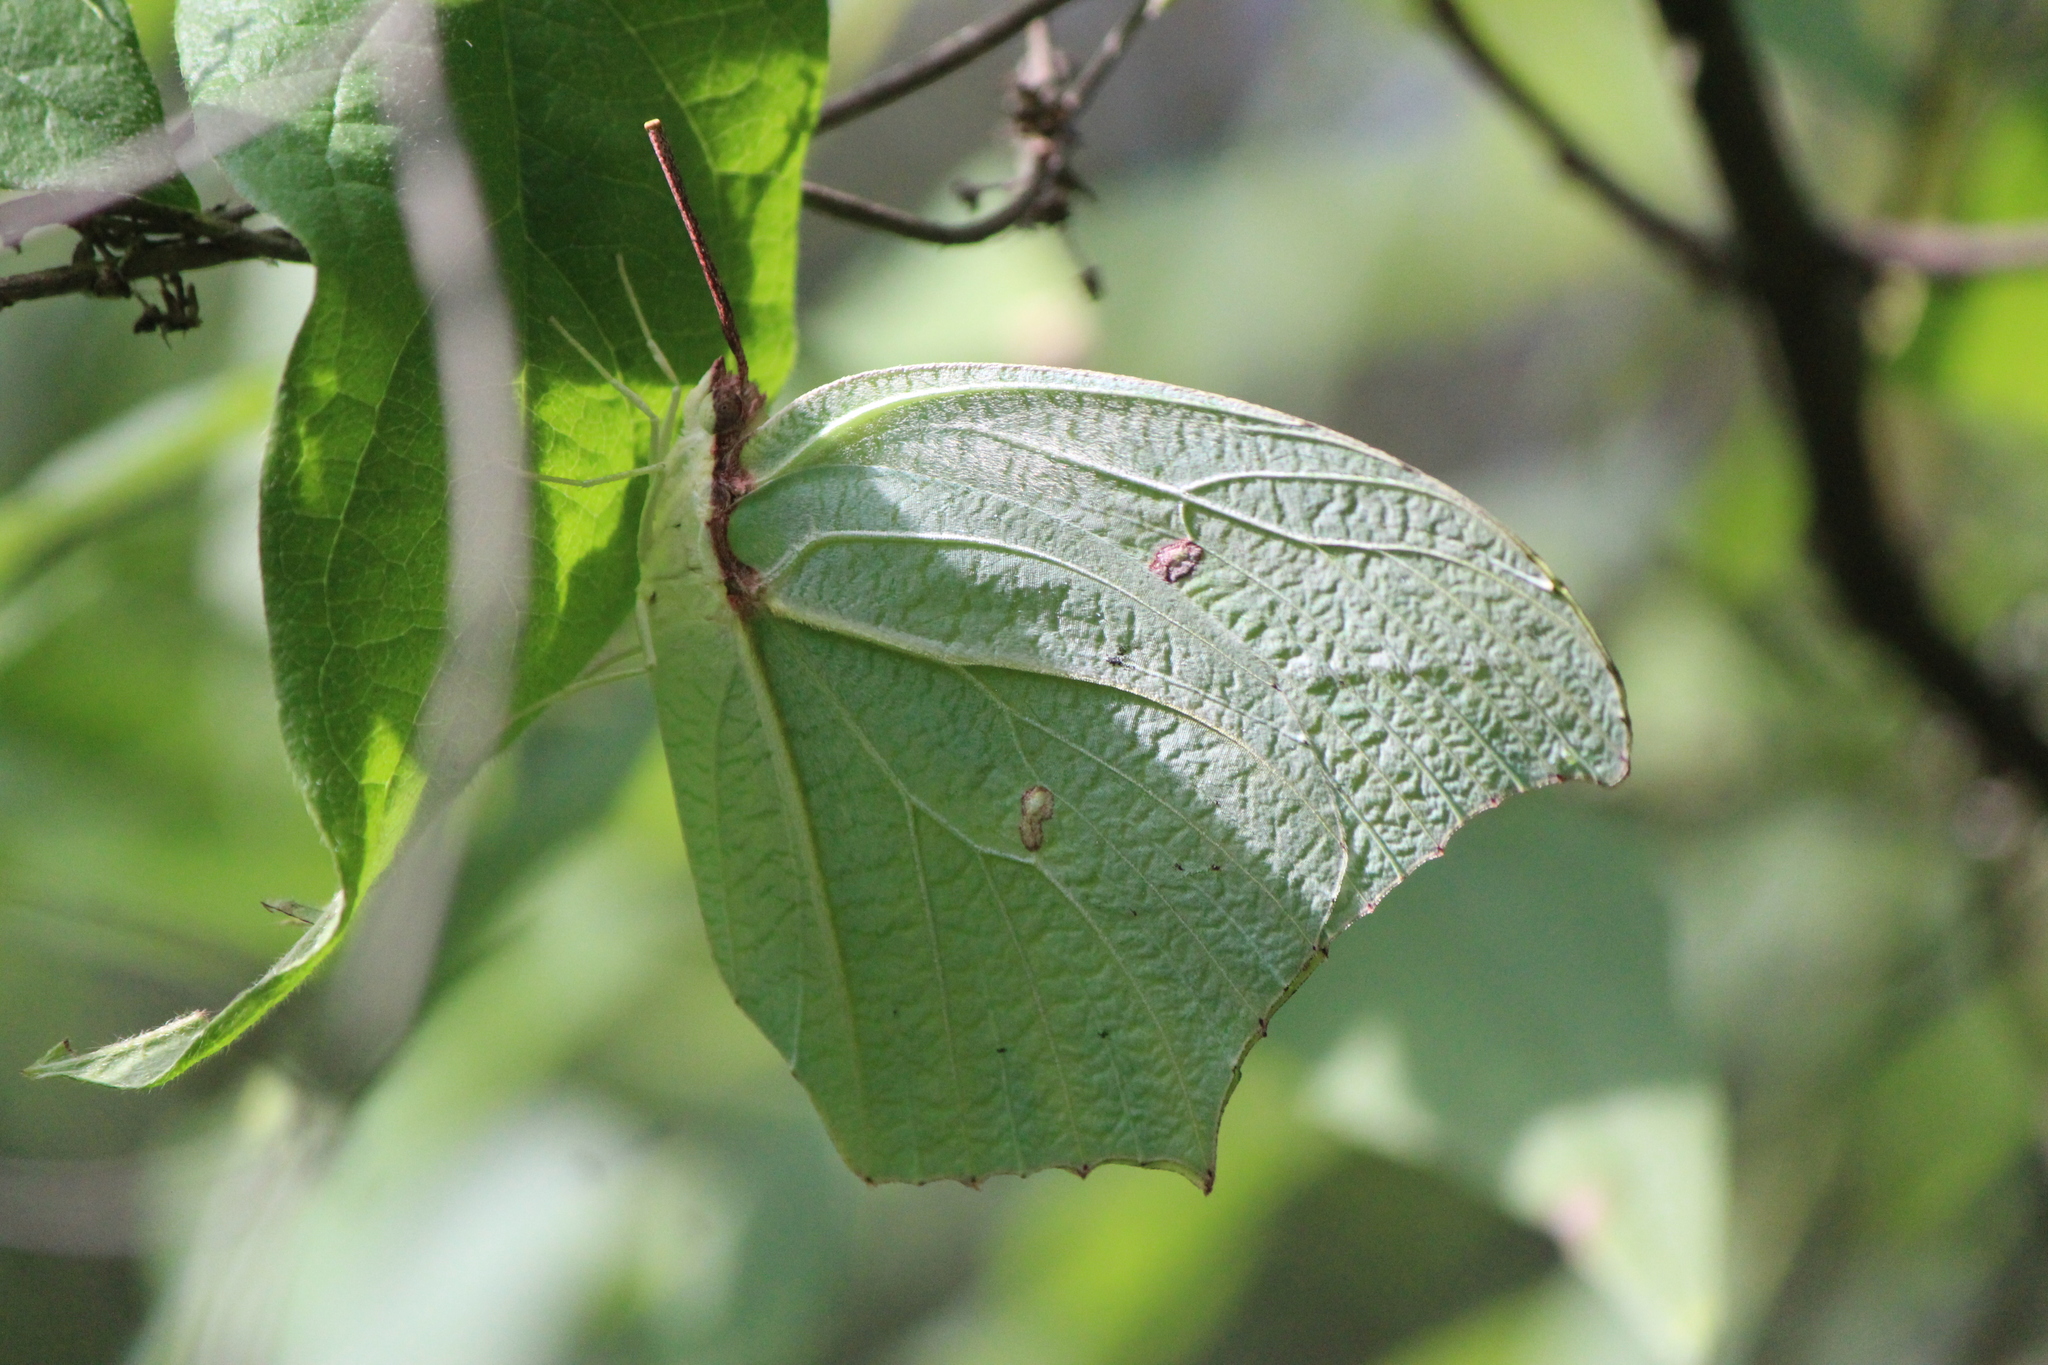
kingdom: Animalia
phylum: Arthropoda
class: Insecta
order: Lepidoptera
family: Pieridae
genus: Anteos
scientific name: Anteos maerula
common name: Angled sulphur
